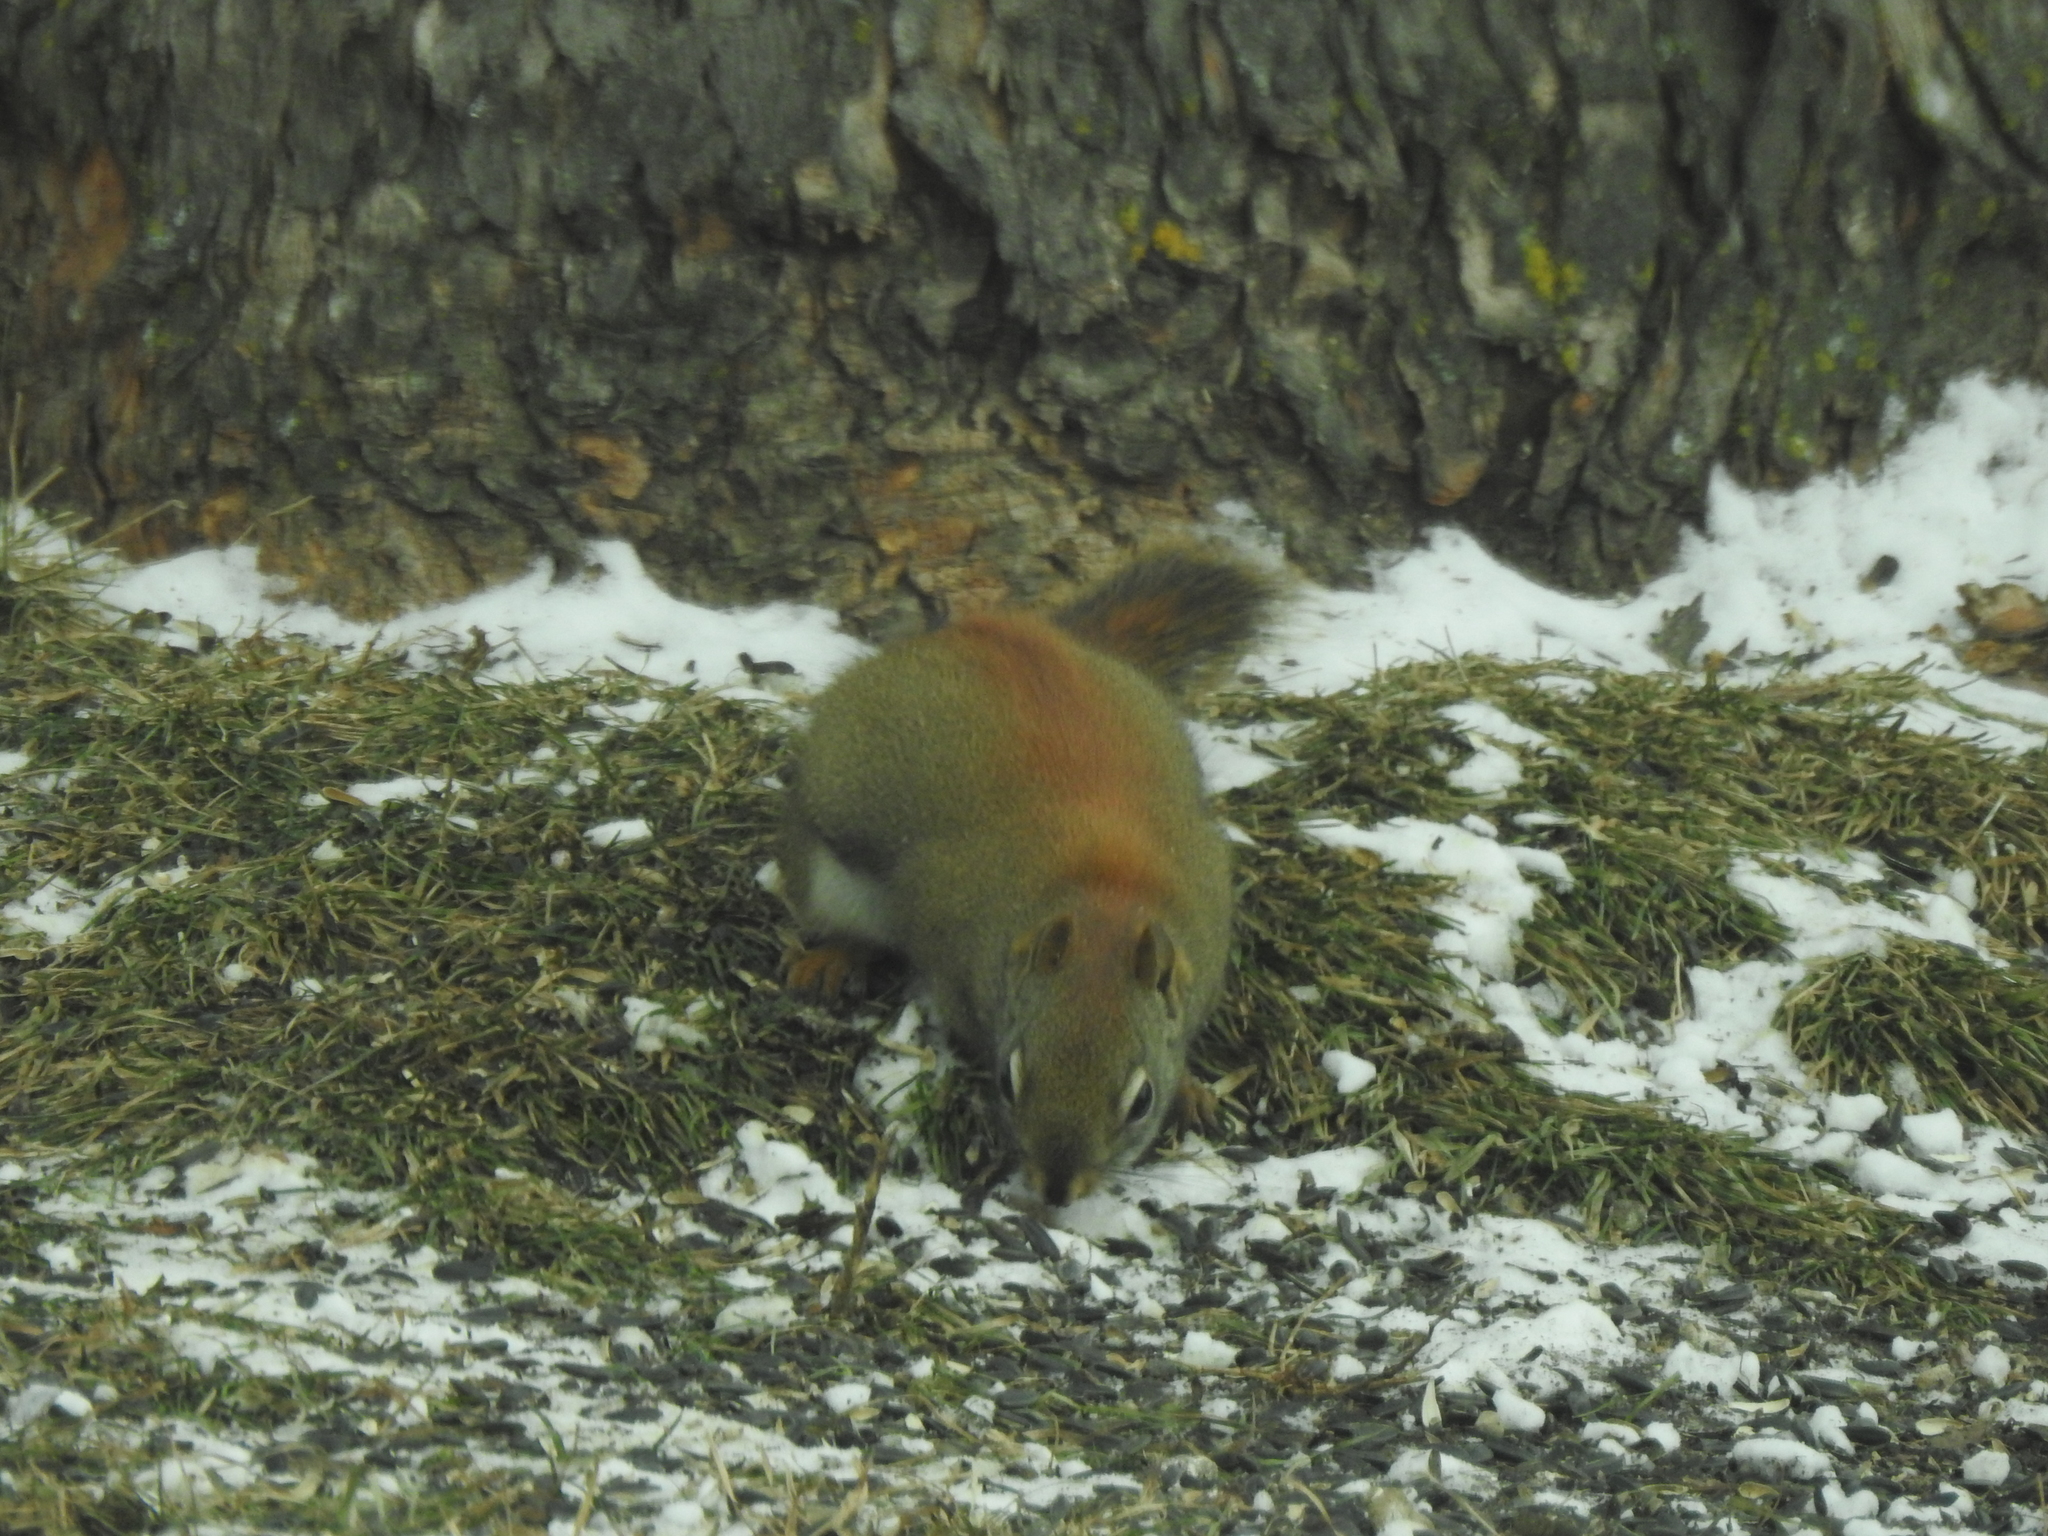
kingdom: Animalia
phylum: Chordata
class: Mammalia
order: Rodentia
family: Sciuridae
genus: Tamiasciurus
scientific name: Tamiasciurus hudsonicus
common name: Red squirrel
